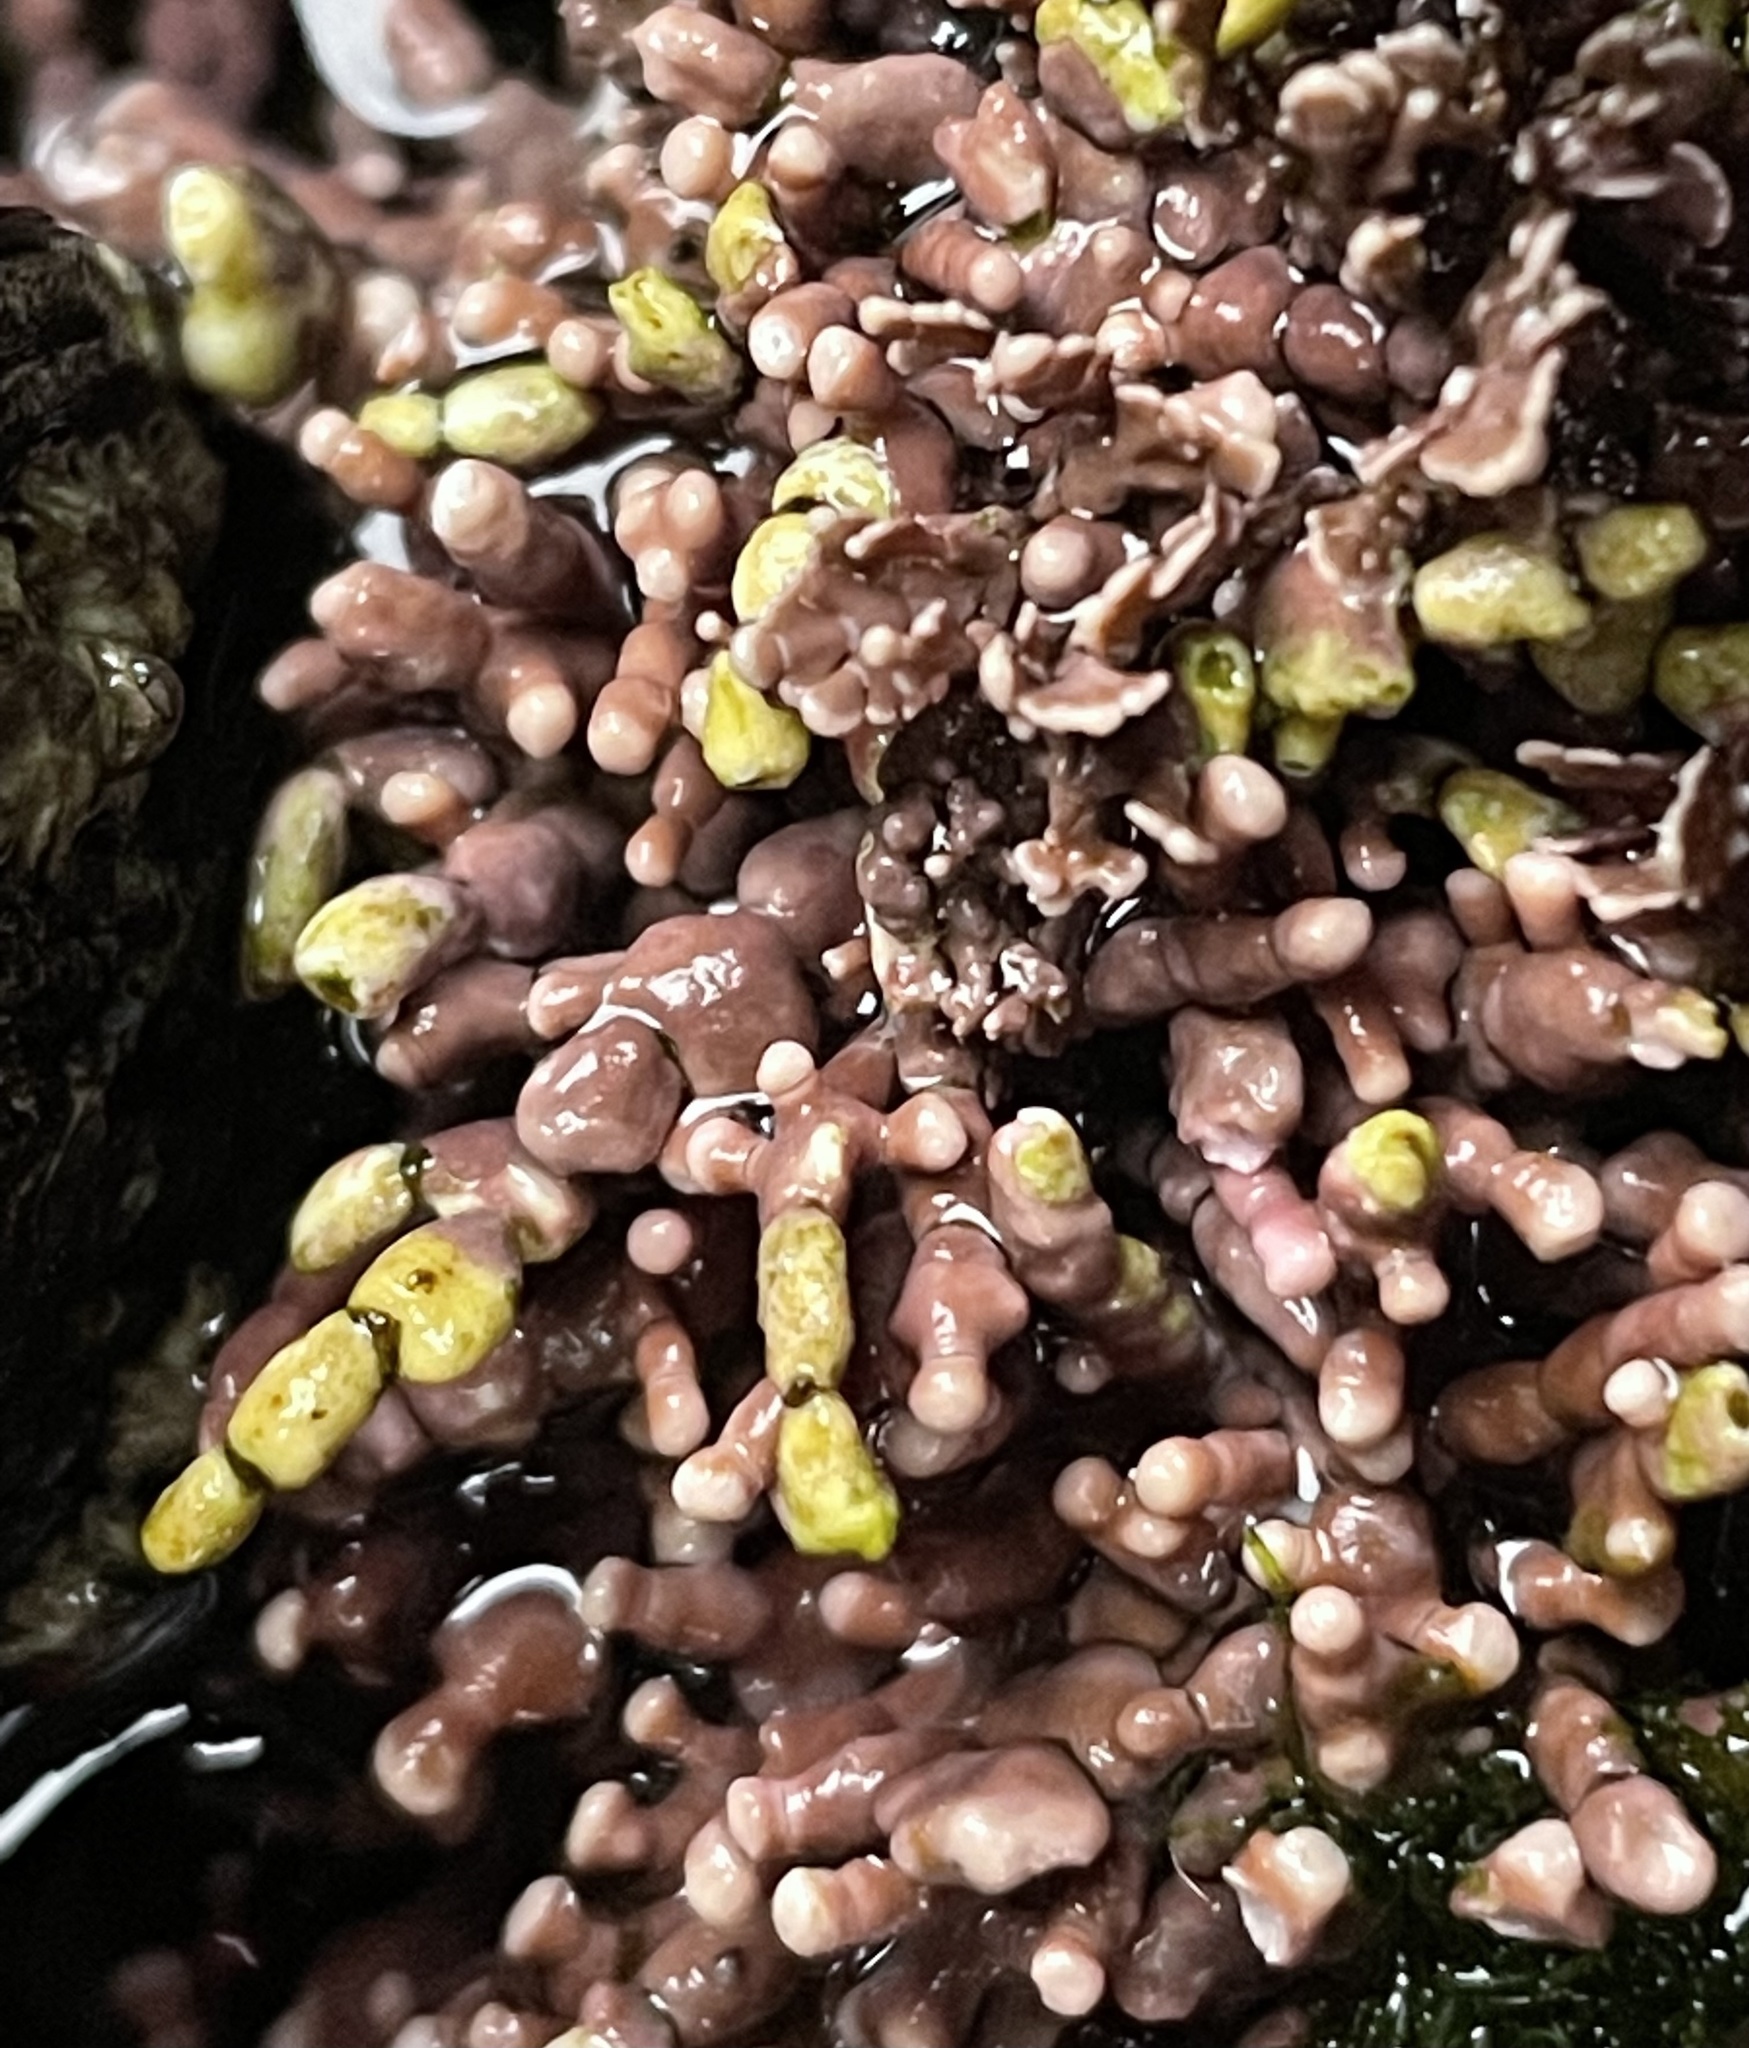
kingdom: Plantae
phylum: Rhodophyta
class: Florideophyceae
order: Corallinales
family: Corallinaceae
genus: Calliarthron
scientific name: Calliarthron tuberculosum
